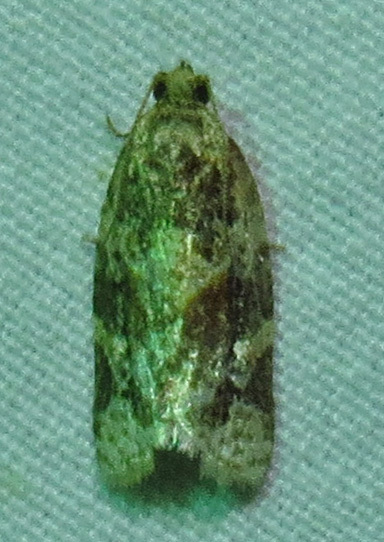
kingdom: Animalia
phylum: Arthropoda
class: Insecta
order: Lepidoptera
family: Tortricidae
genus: Argyrotaenia
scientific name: Argyrotaenia velutinana
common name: Red-banded leafroller moth
